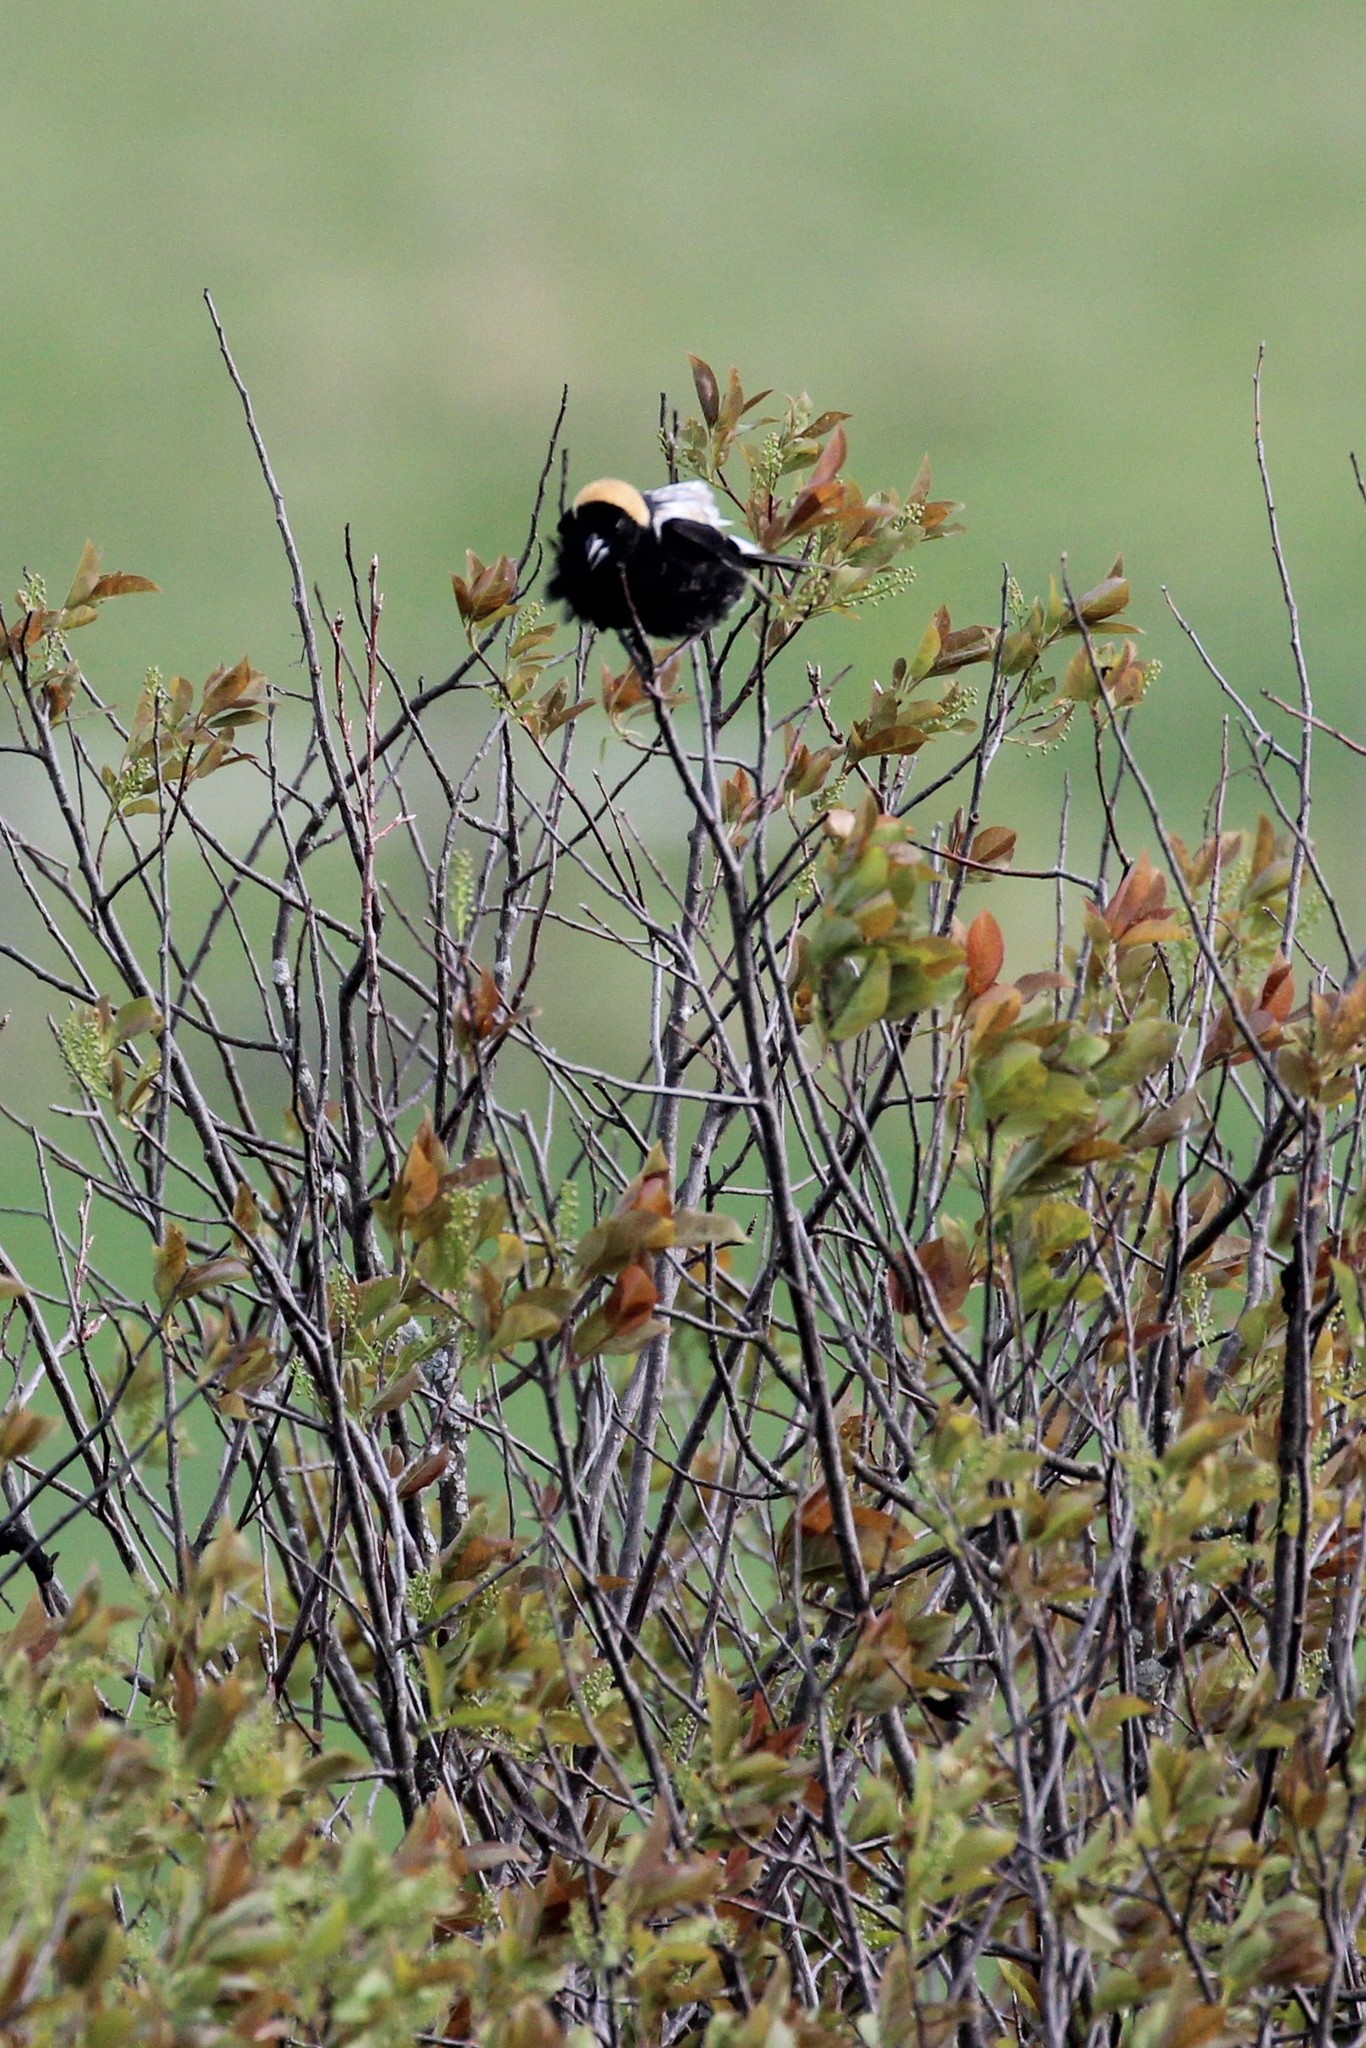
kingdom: Animalia
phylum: Chordata
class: Aves
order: Passeriformes
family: Icteridae
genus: Dolichonyx
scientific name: Dolichonyx oryzivorus
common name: Bobolink
